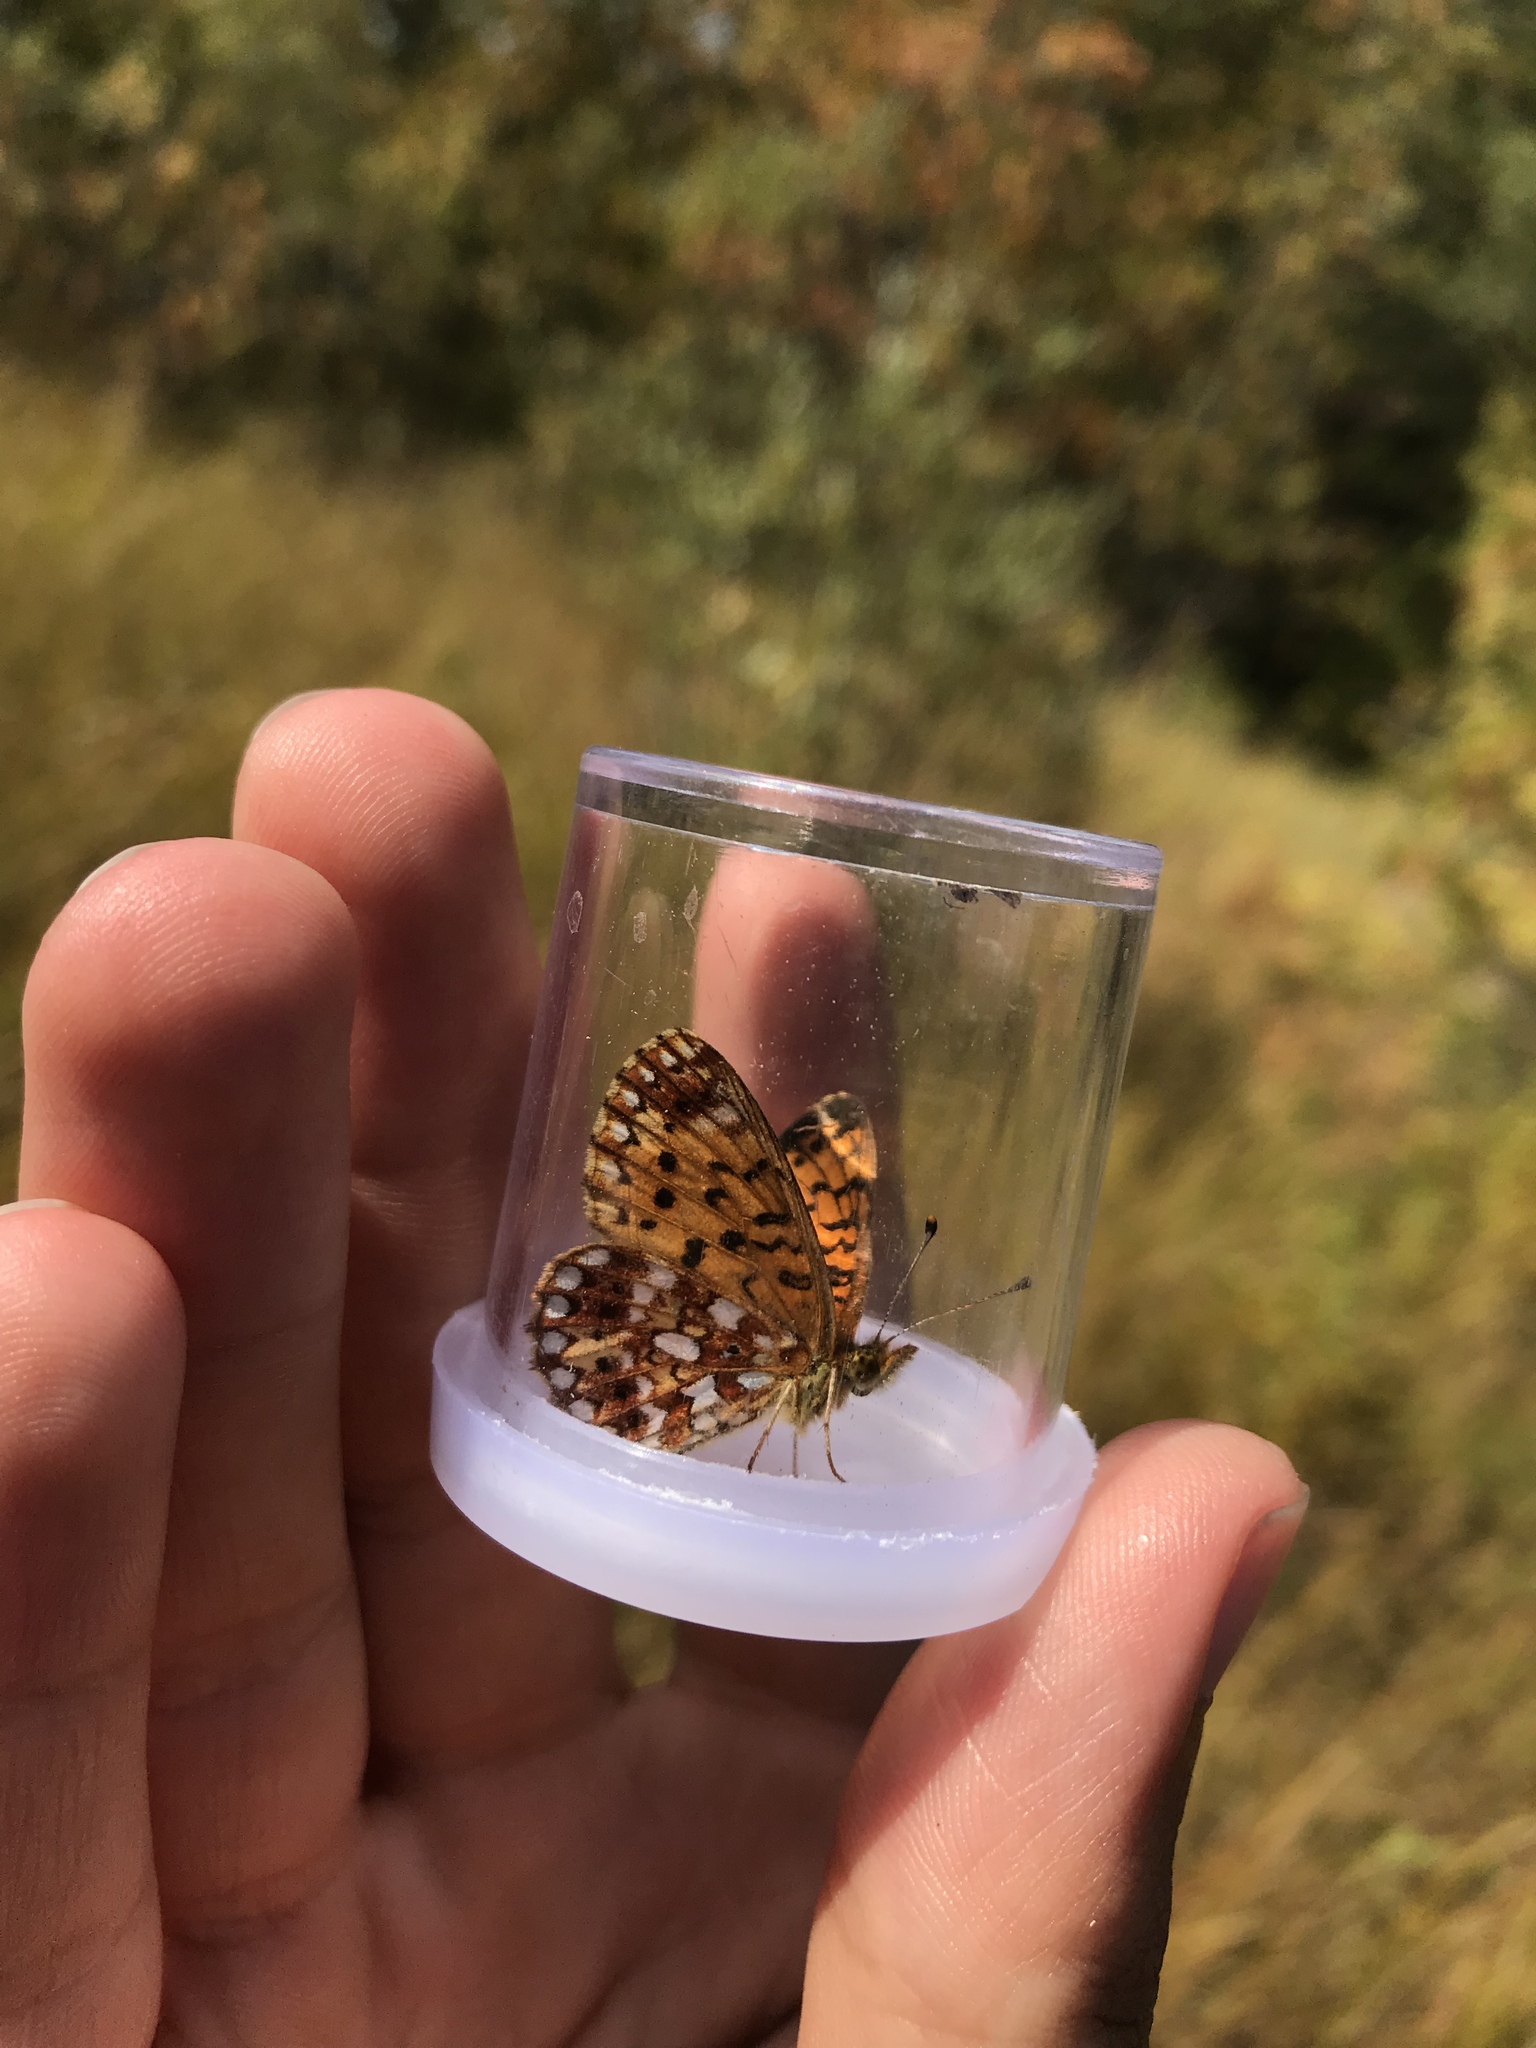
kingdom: Animalia
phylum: Arthropoda
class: Insecta
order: Lepidoptera
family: Nymphalidae
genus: Boloria
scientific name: Boloria
